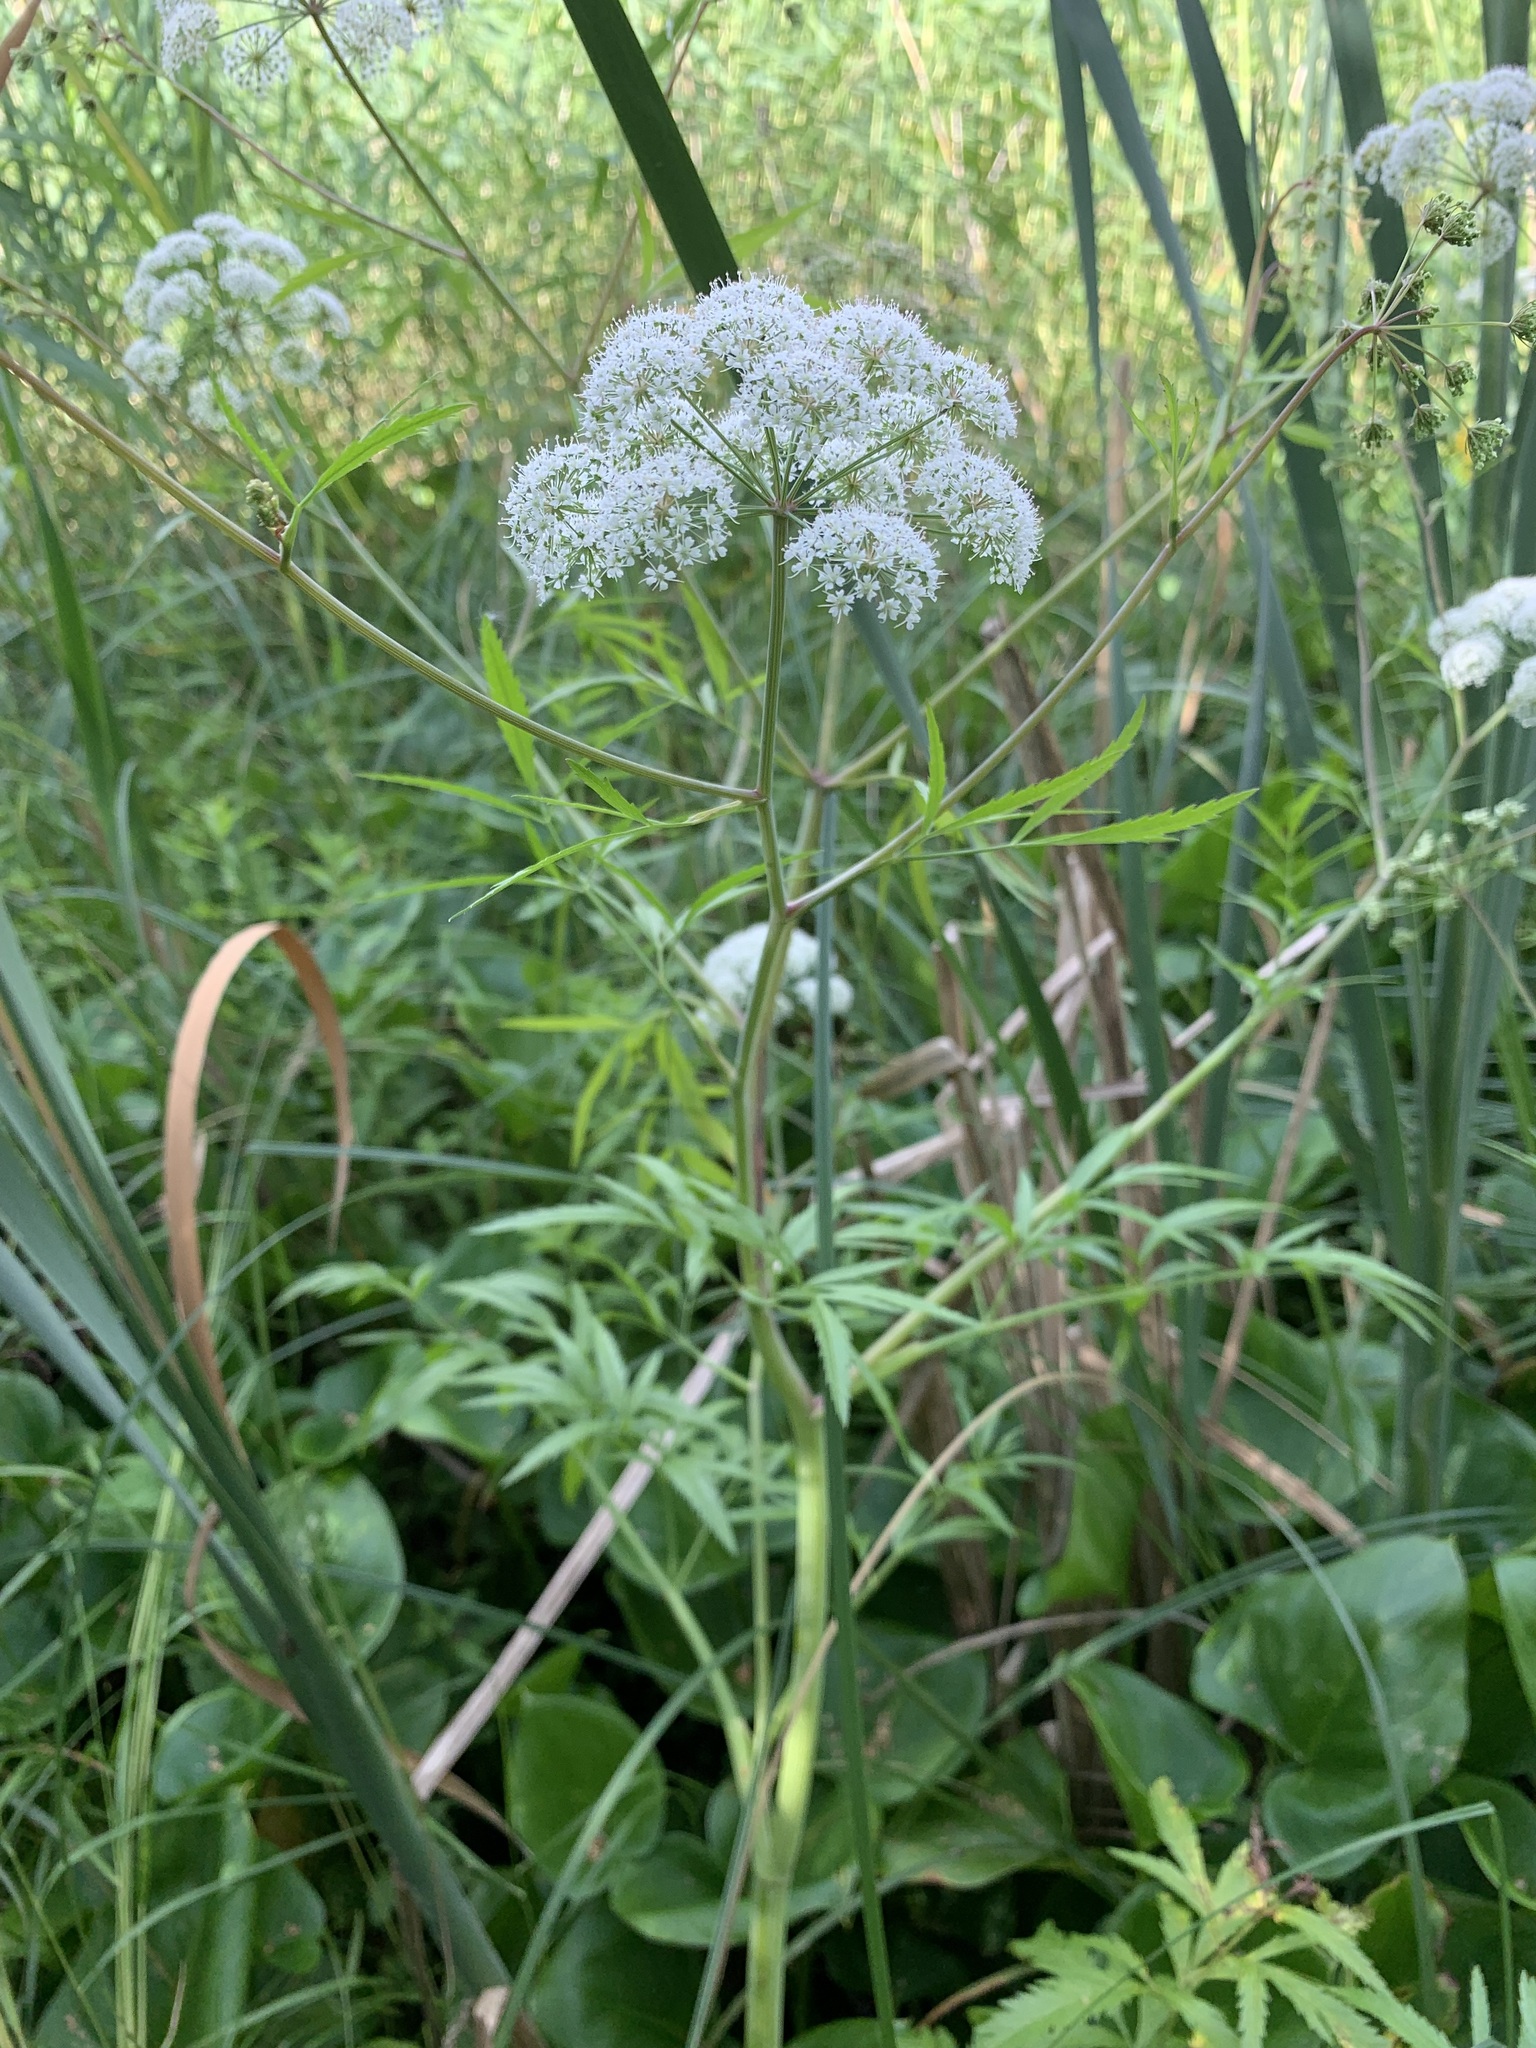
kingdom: Plantae
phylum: Tracheophyta
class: Magnoliopsida
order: Apiales
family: Apiaceae
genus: Cicuta
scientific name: Cicuta virosa
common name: Cowbane
